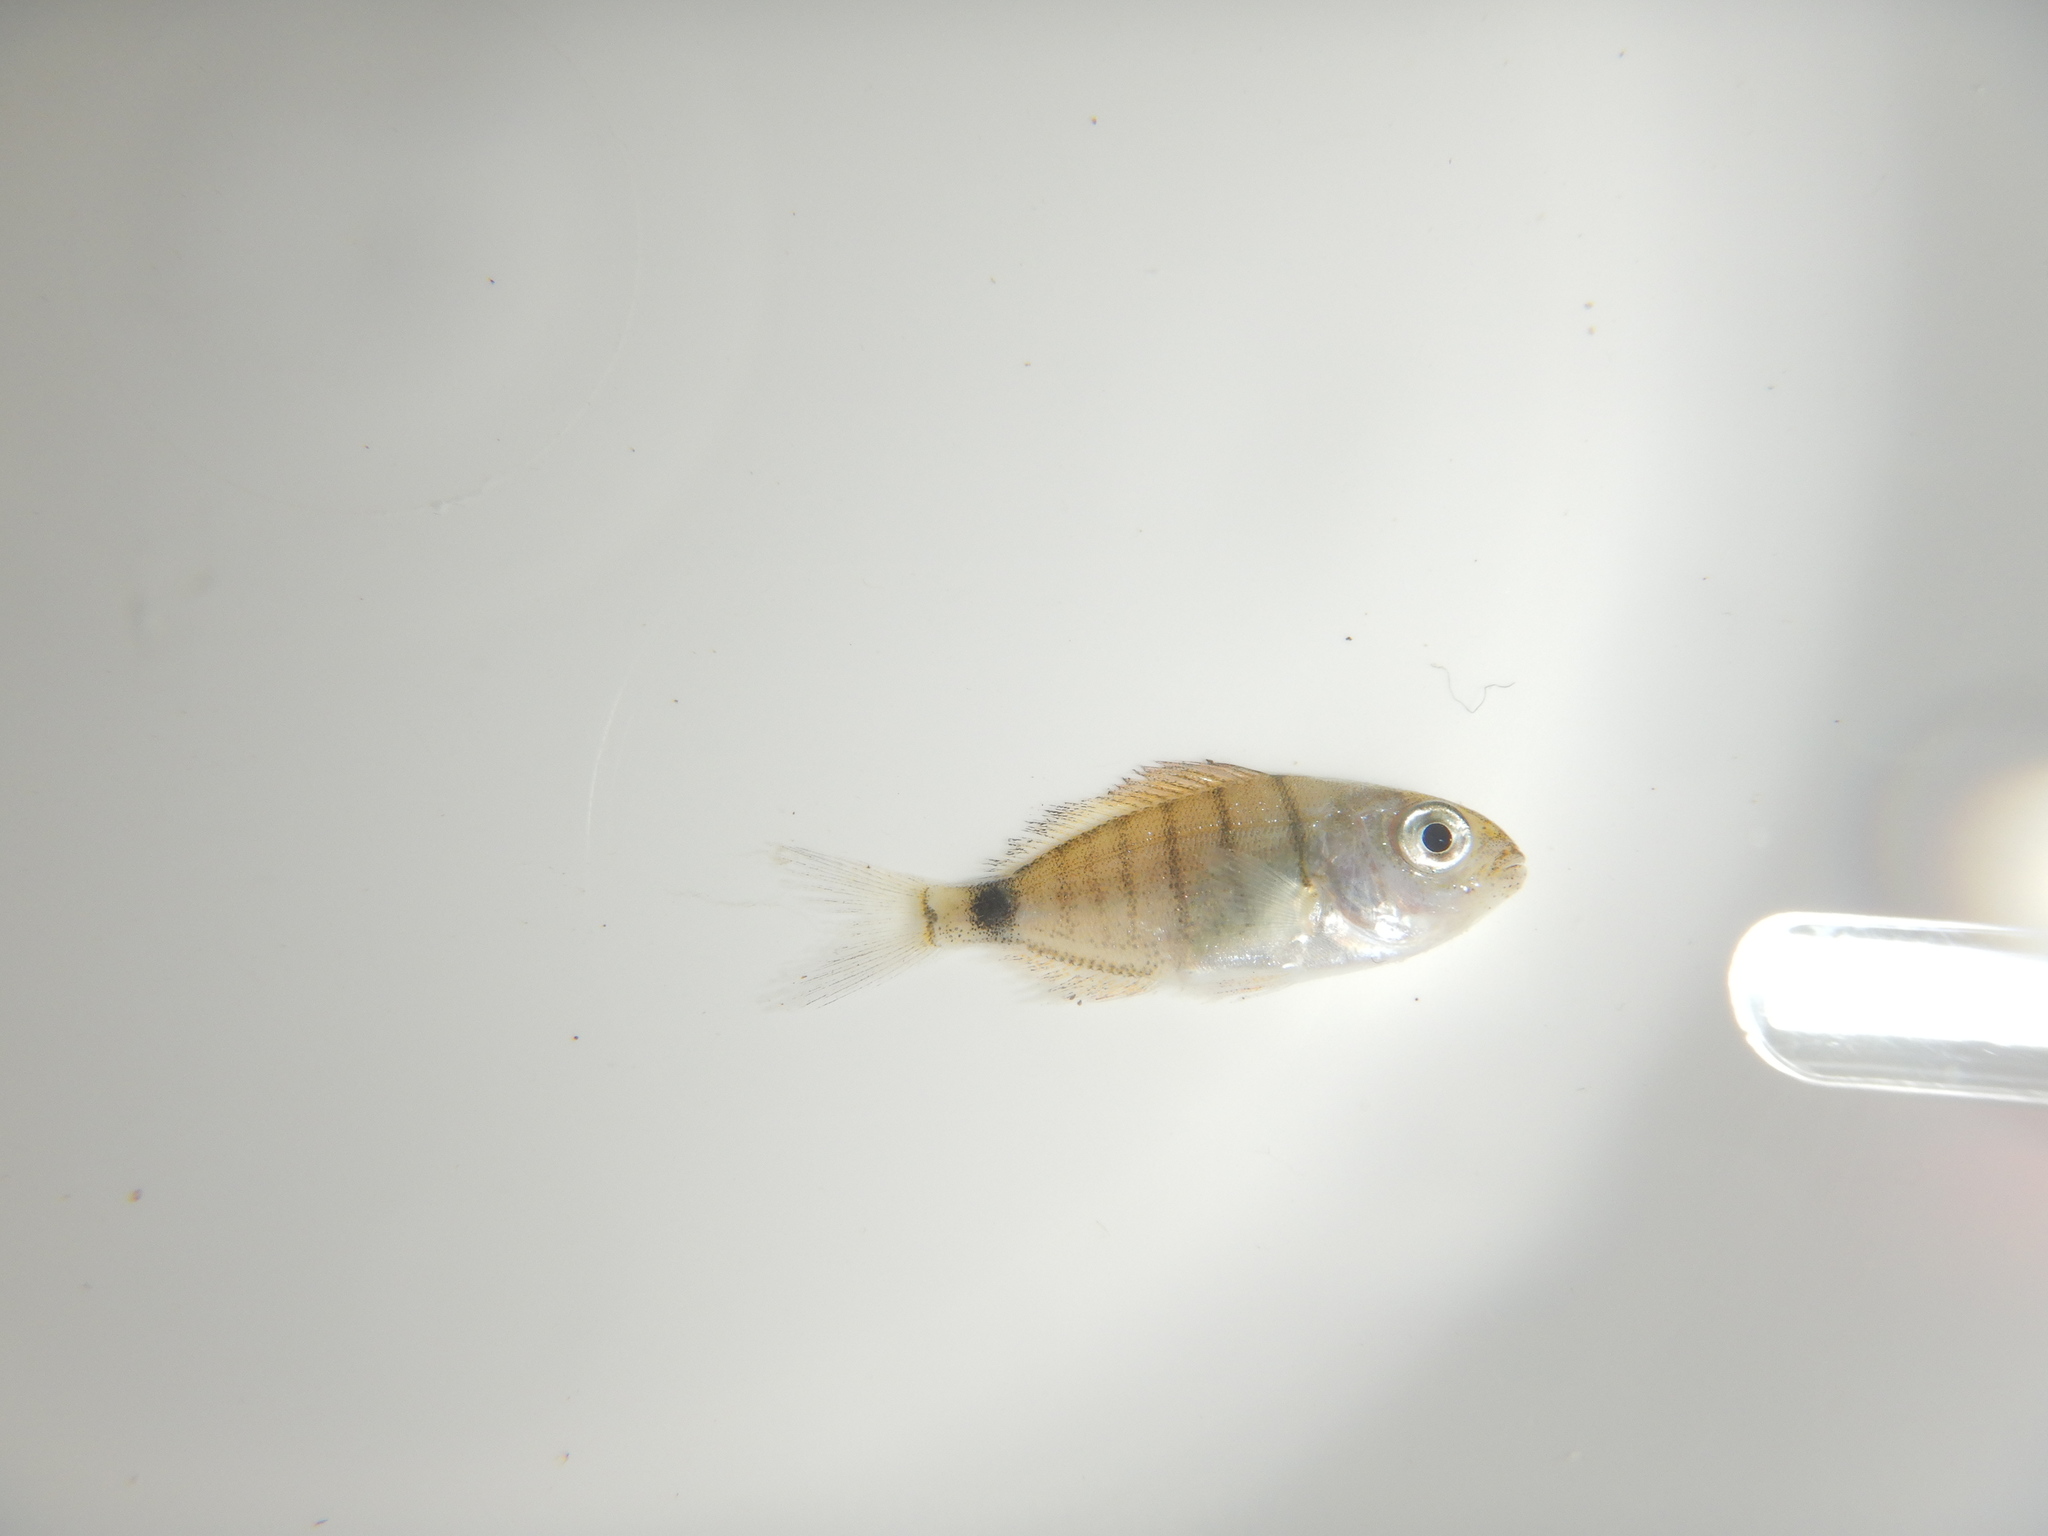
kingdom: Animalia
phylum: Chordata
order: Perciformes
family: Sparidae
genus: Diplodus
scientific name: Diplodus sargus
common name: White seabream
